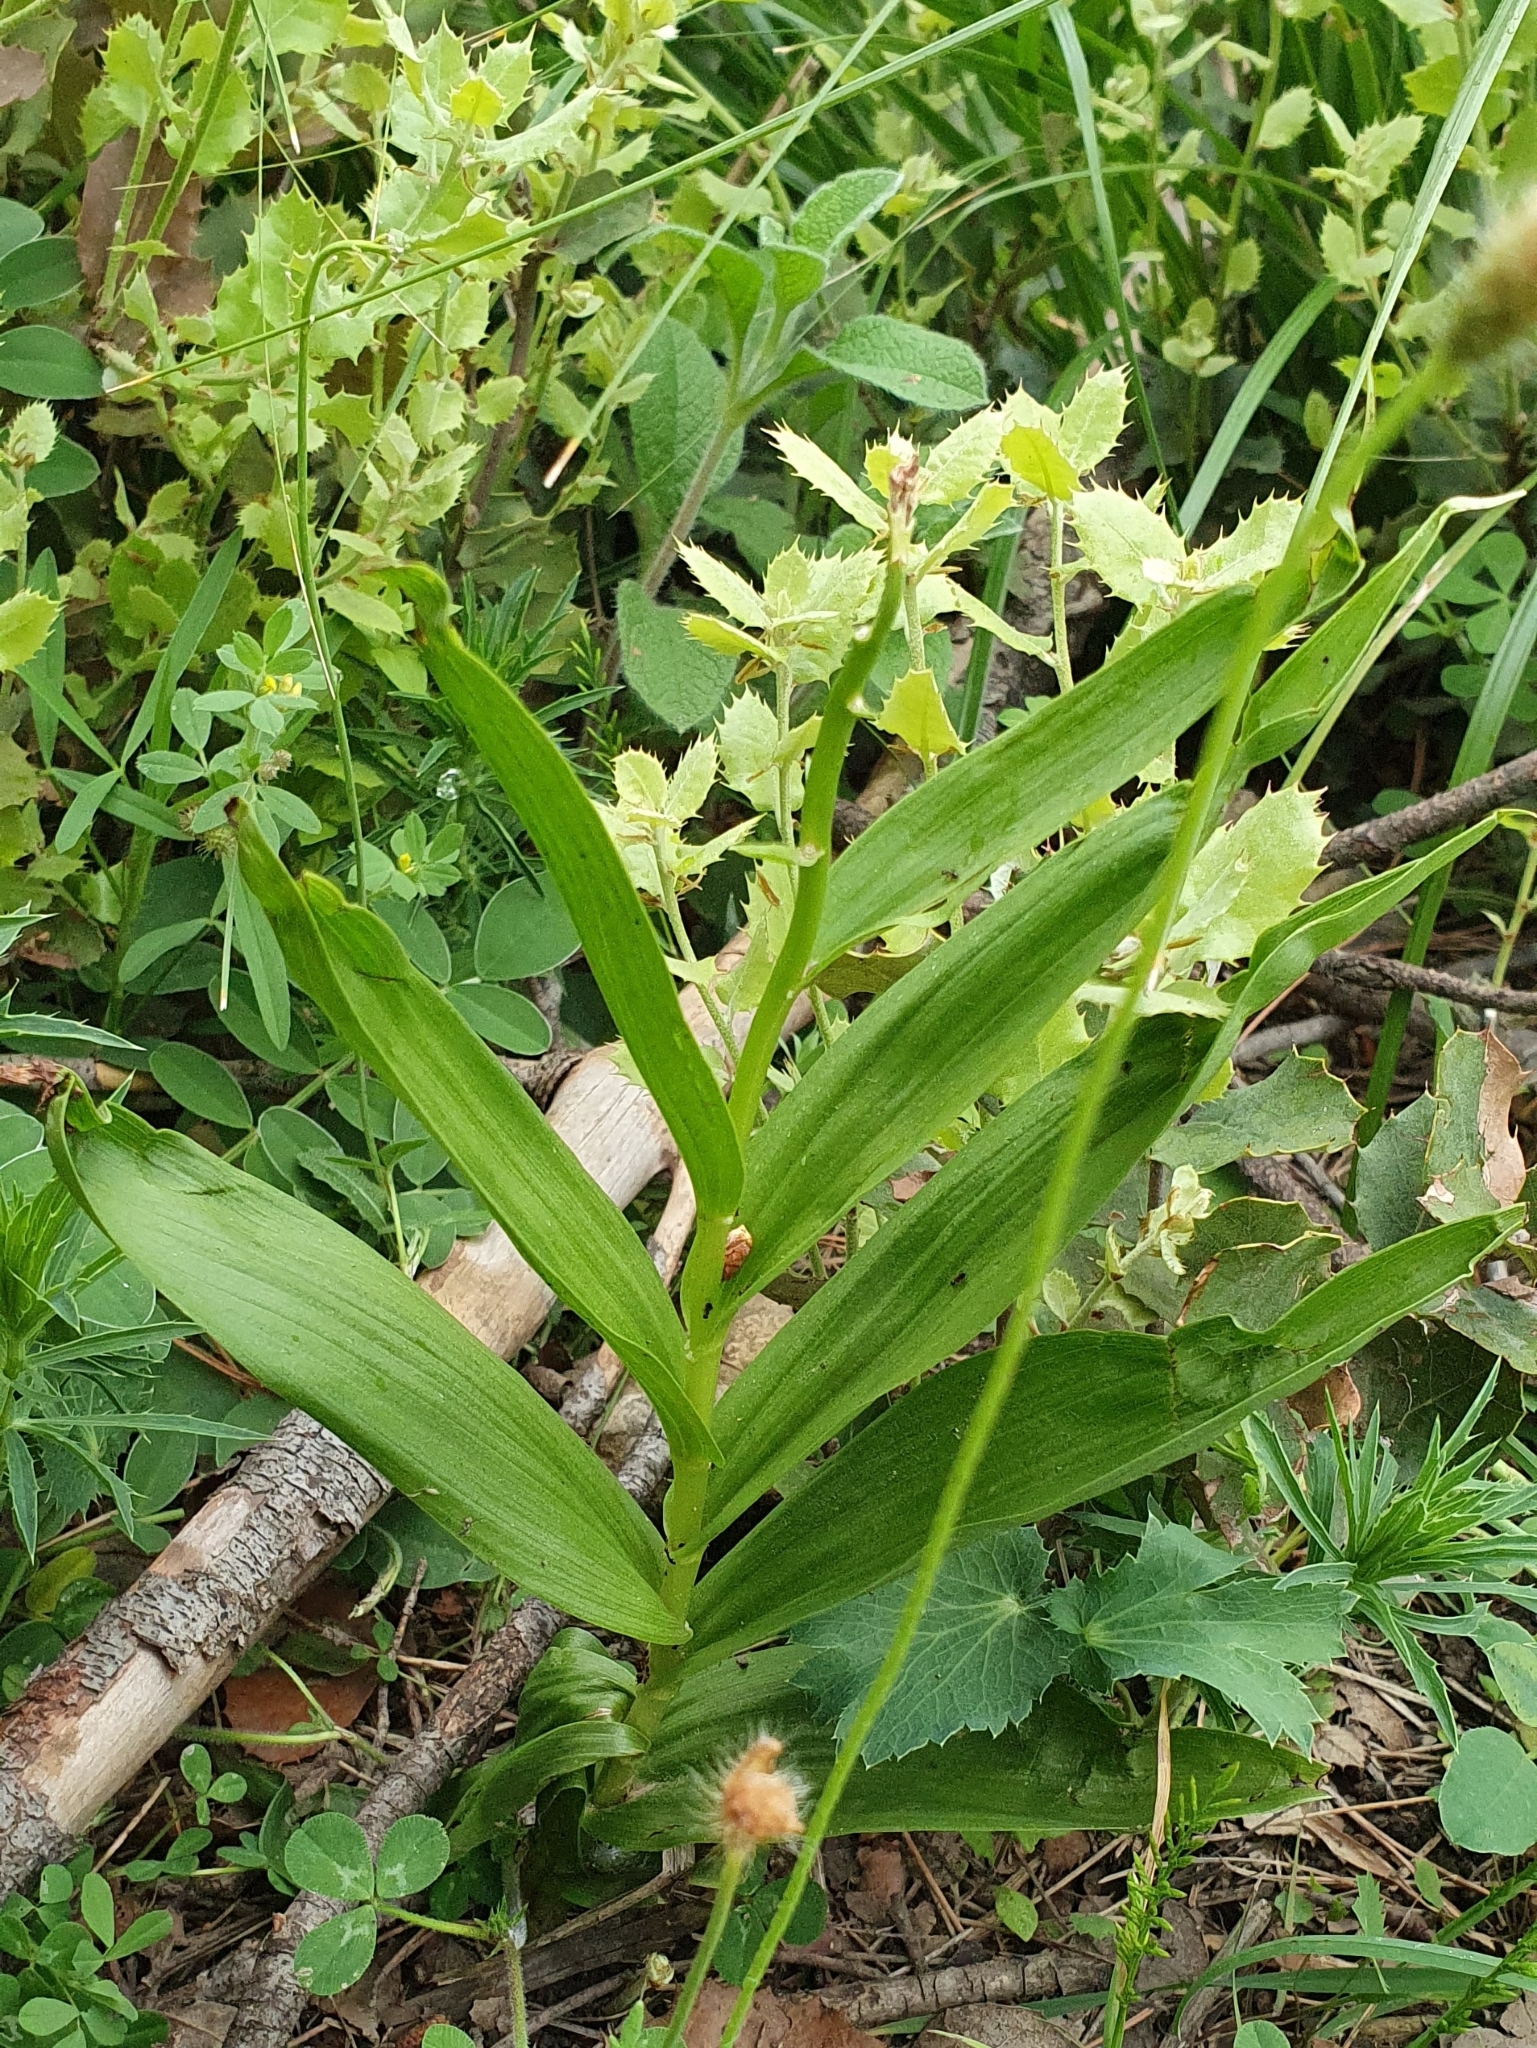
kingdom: Plantae
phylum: Tracheophyta
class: Liliopsida
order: Asparagales
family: Orchidaceae
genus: Cephalanthera
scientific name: Cephalanthera longifolia
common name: Narrow-leaved helleborine
